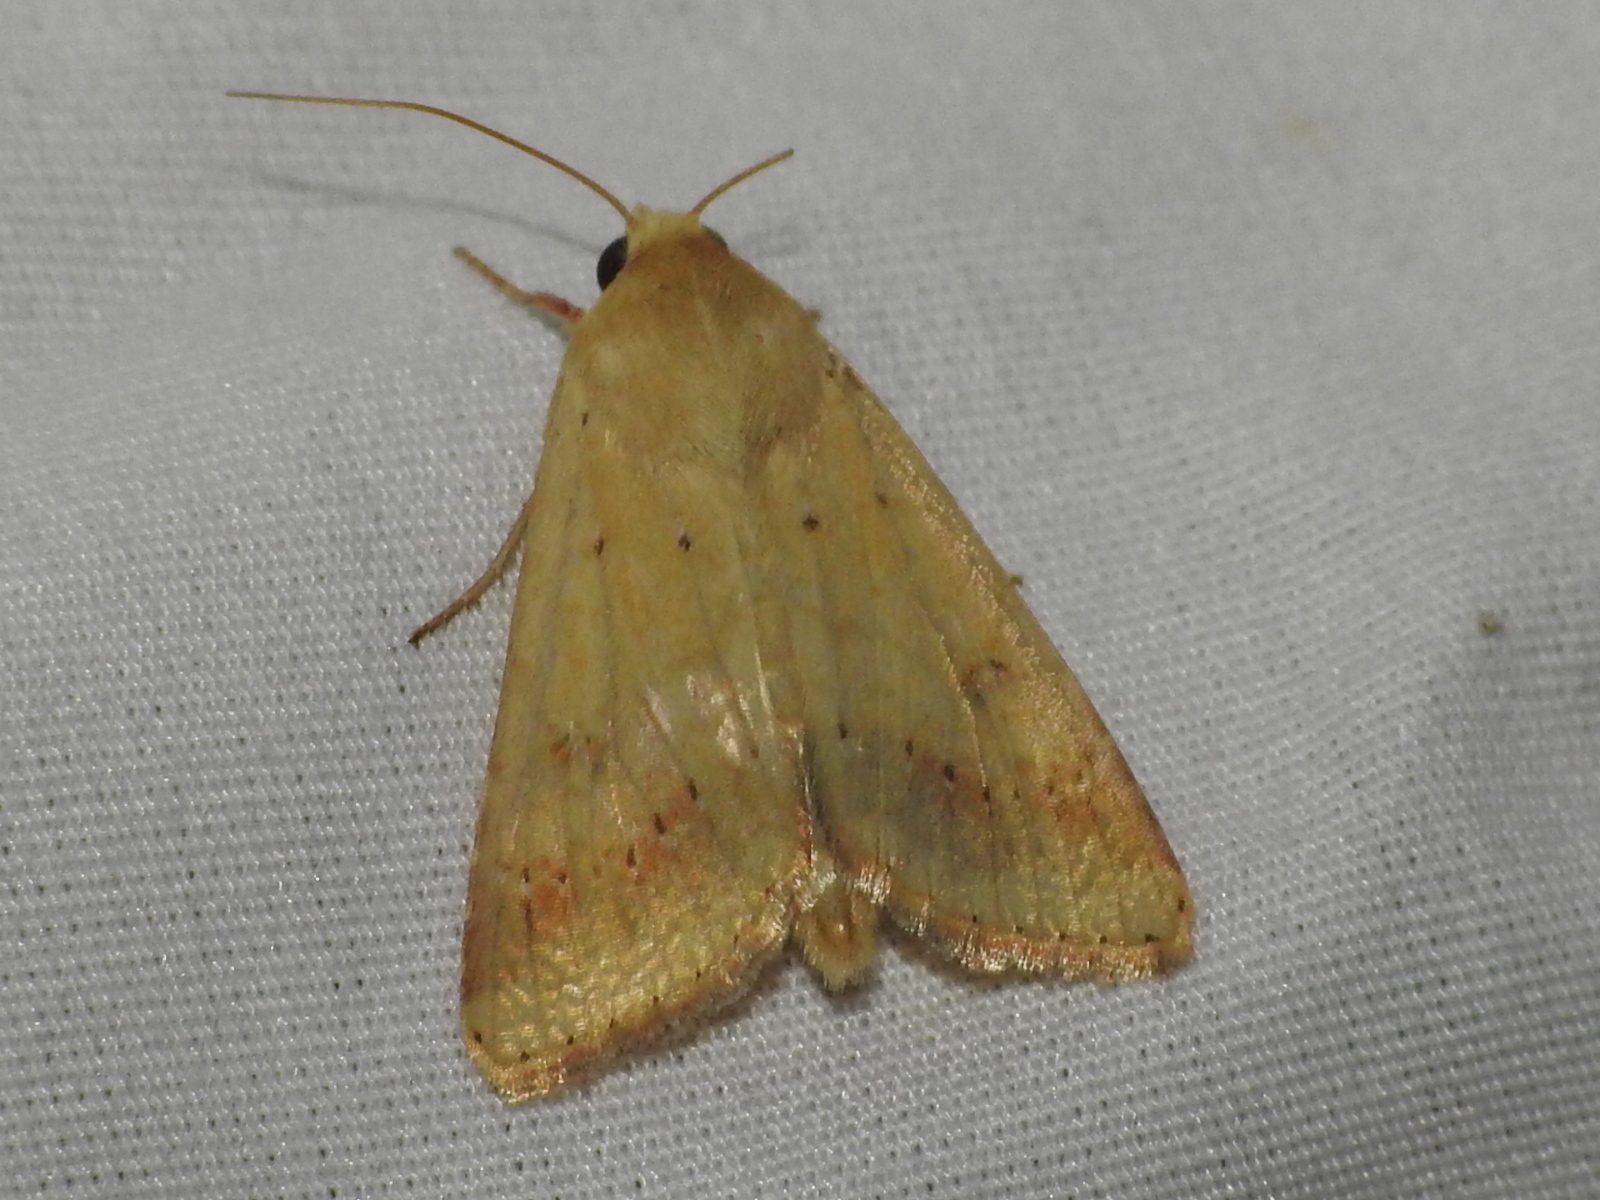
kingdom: Animalia
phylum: Arthropoda
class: Insecta
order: Lepidoptera
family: Noctuidae
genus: Helicoverpa
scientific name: Helicoverpa zea
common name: Bollworm
